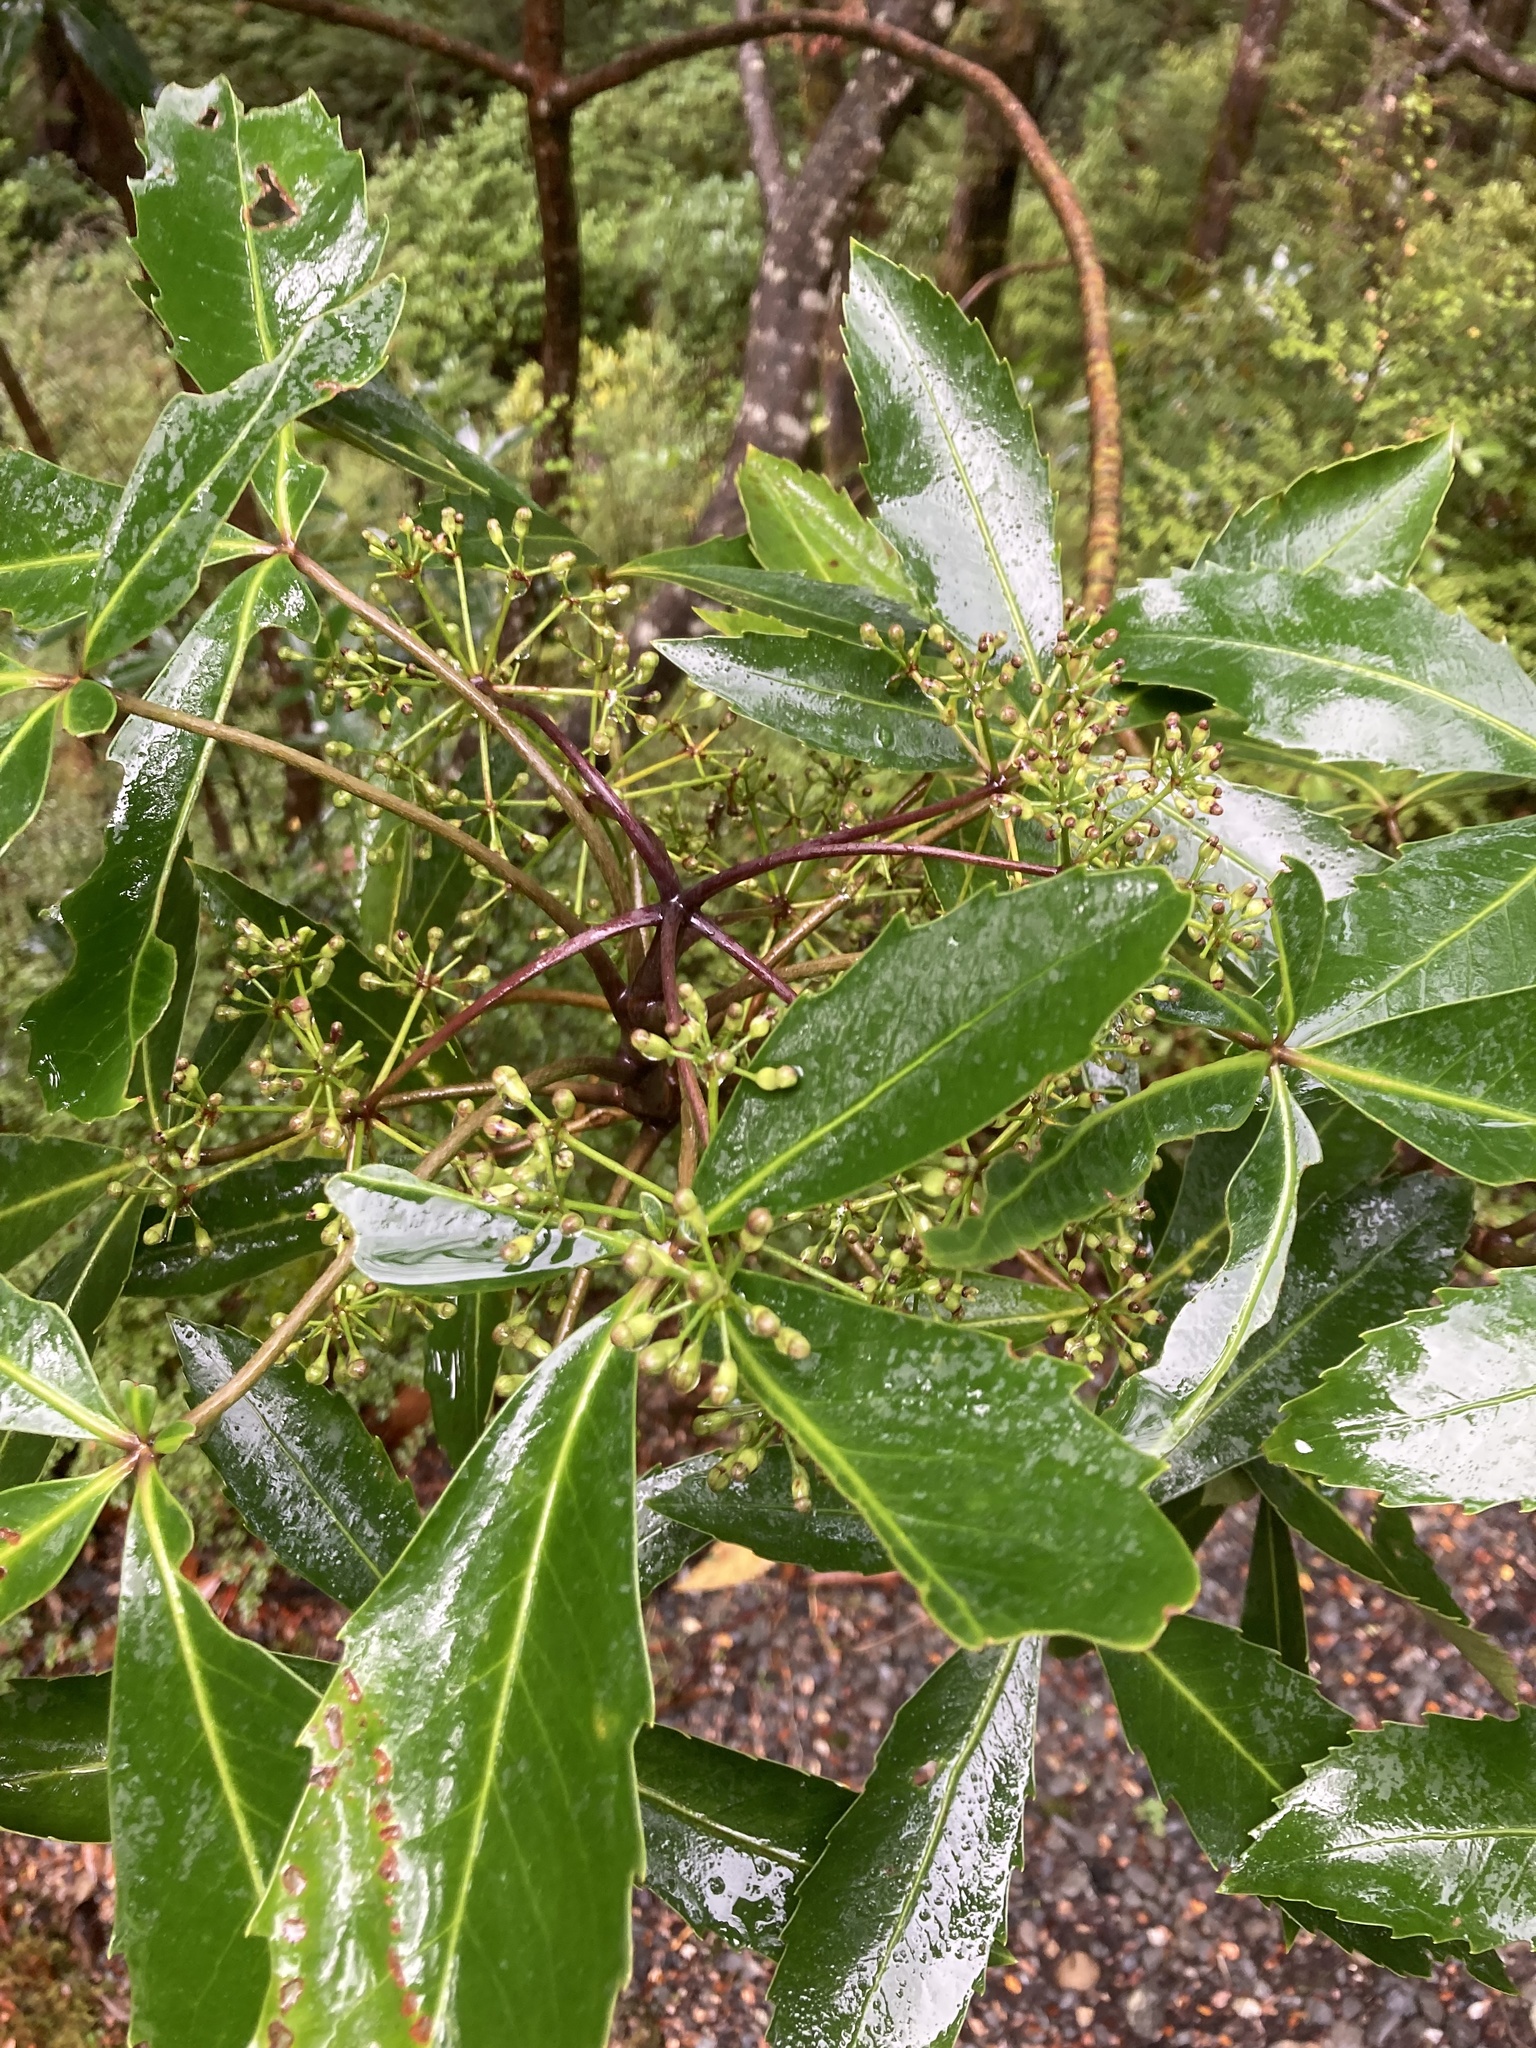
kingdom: Plantae
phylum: Tracheophyta
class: Magnoliopsida
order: Apiales
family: Araliaceae
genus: Neopanax
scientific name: Neopanax colensoi
